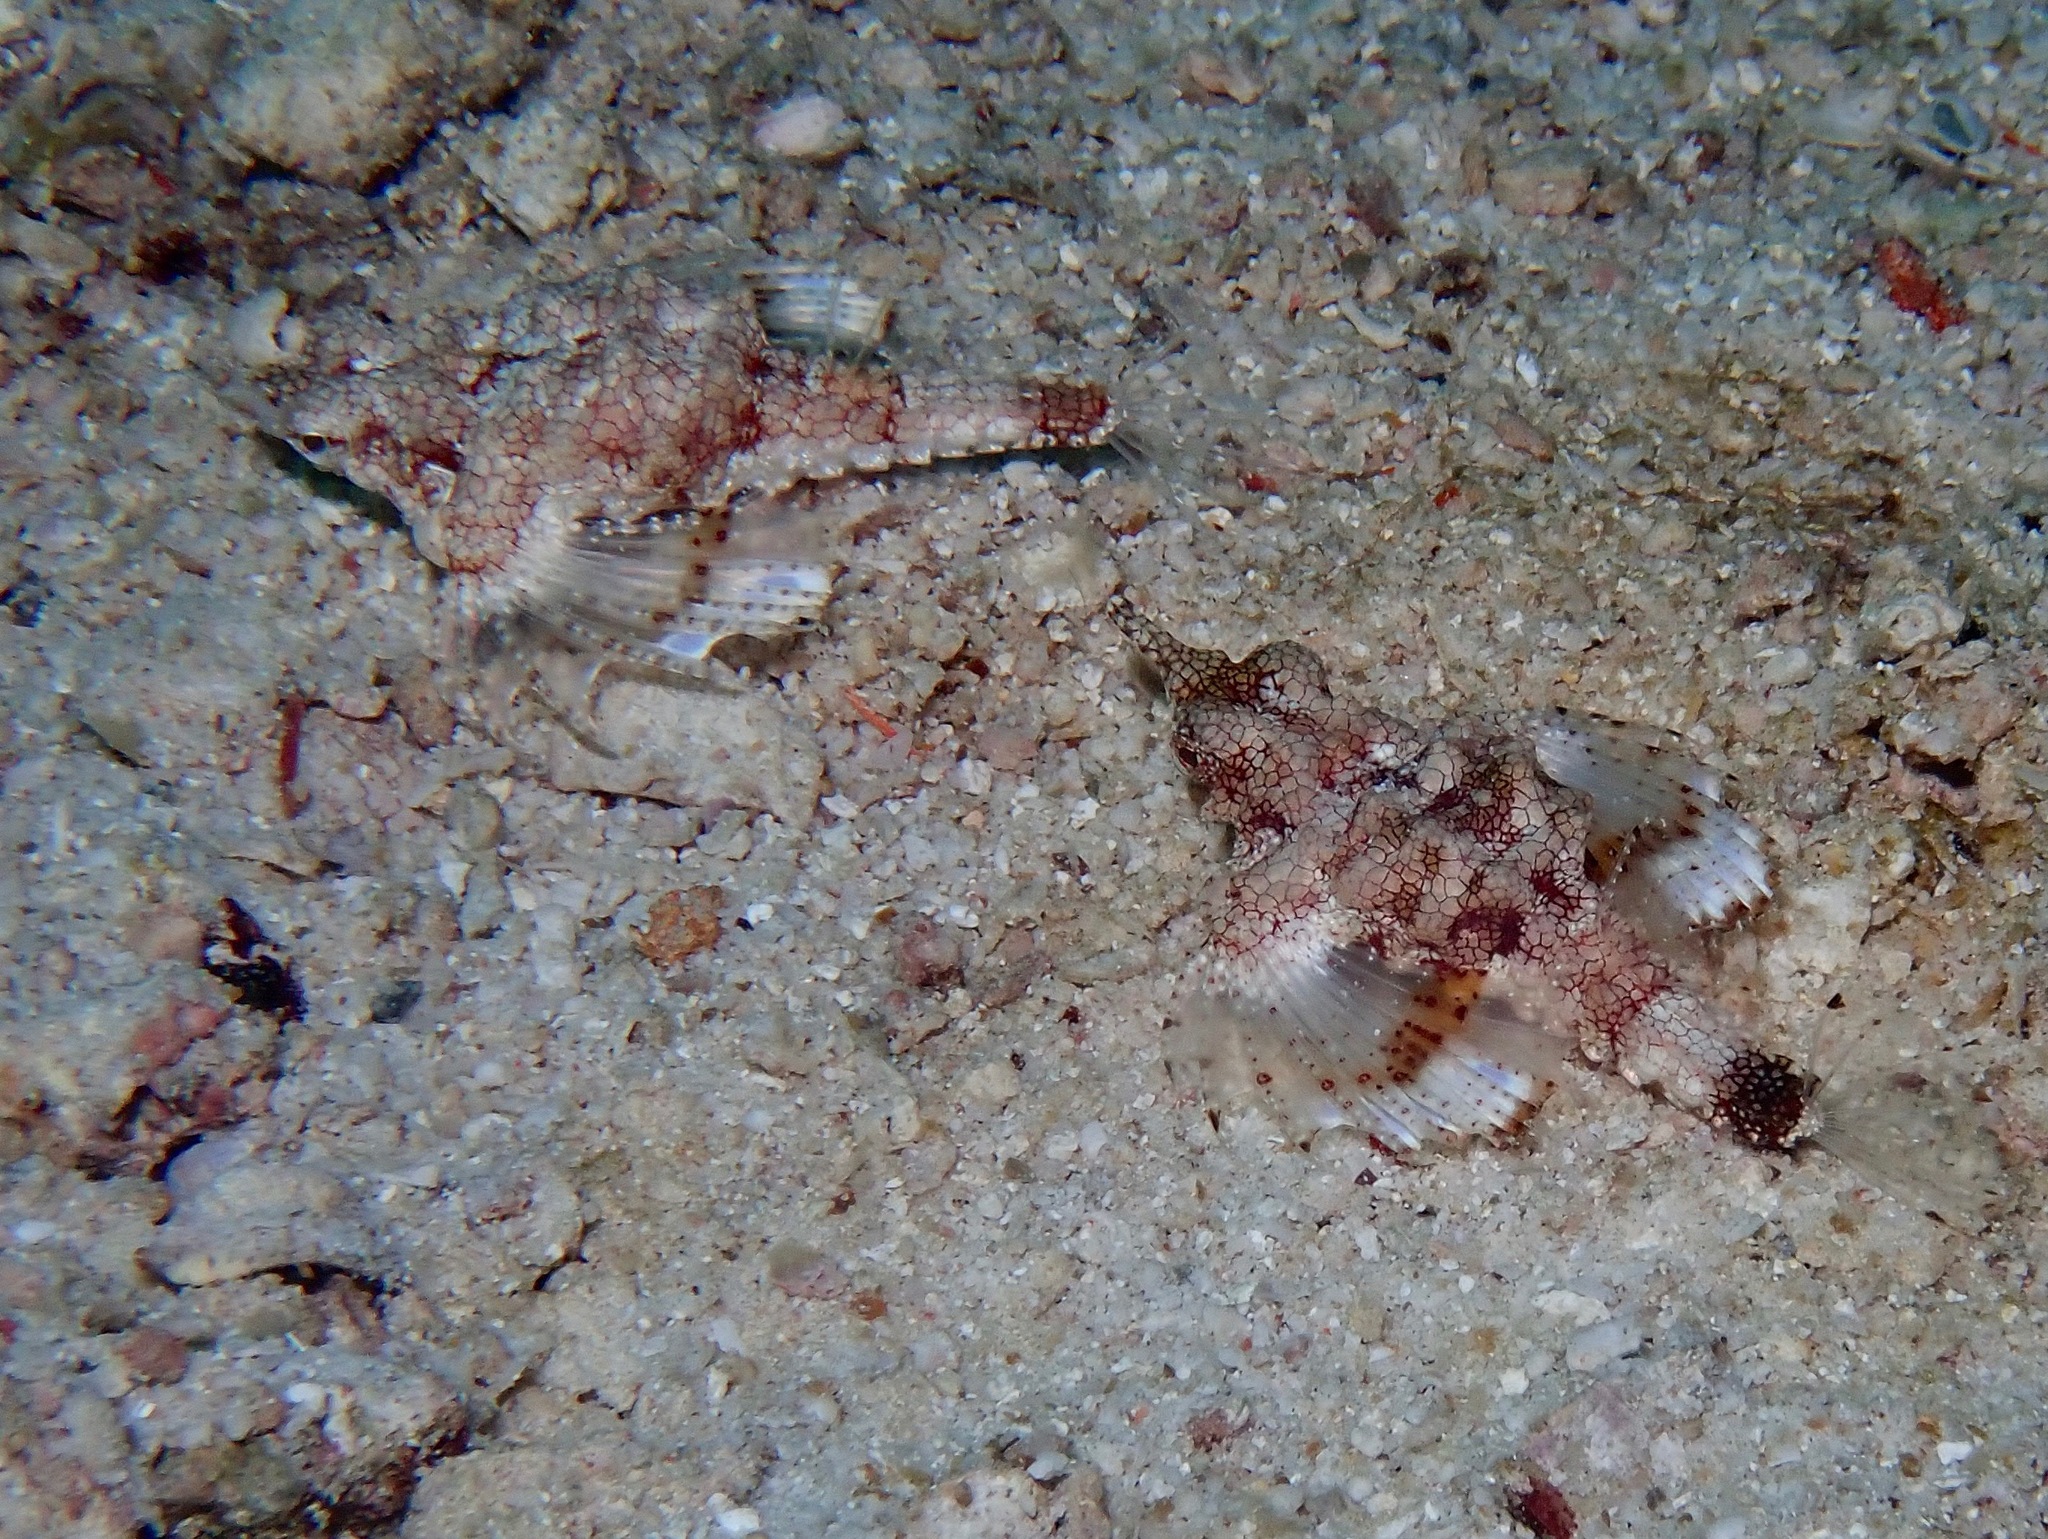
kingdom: Animalia
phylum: Chordata
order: Gasterosteiformes
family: Pegasidae
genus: Eurypegasus
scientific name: Eurypegasus draconis
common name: Short dragonfish
